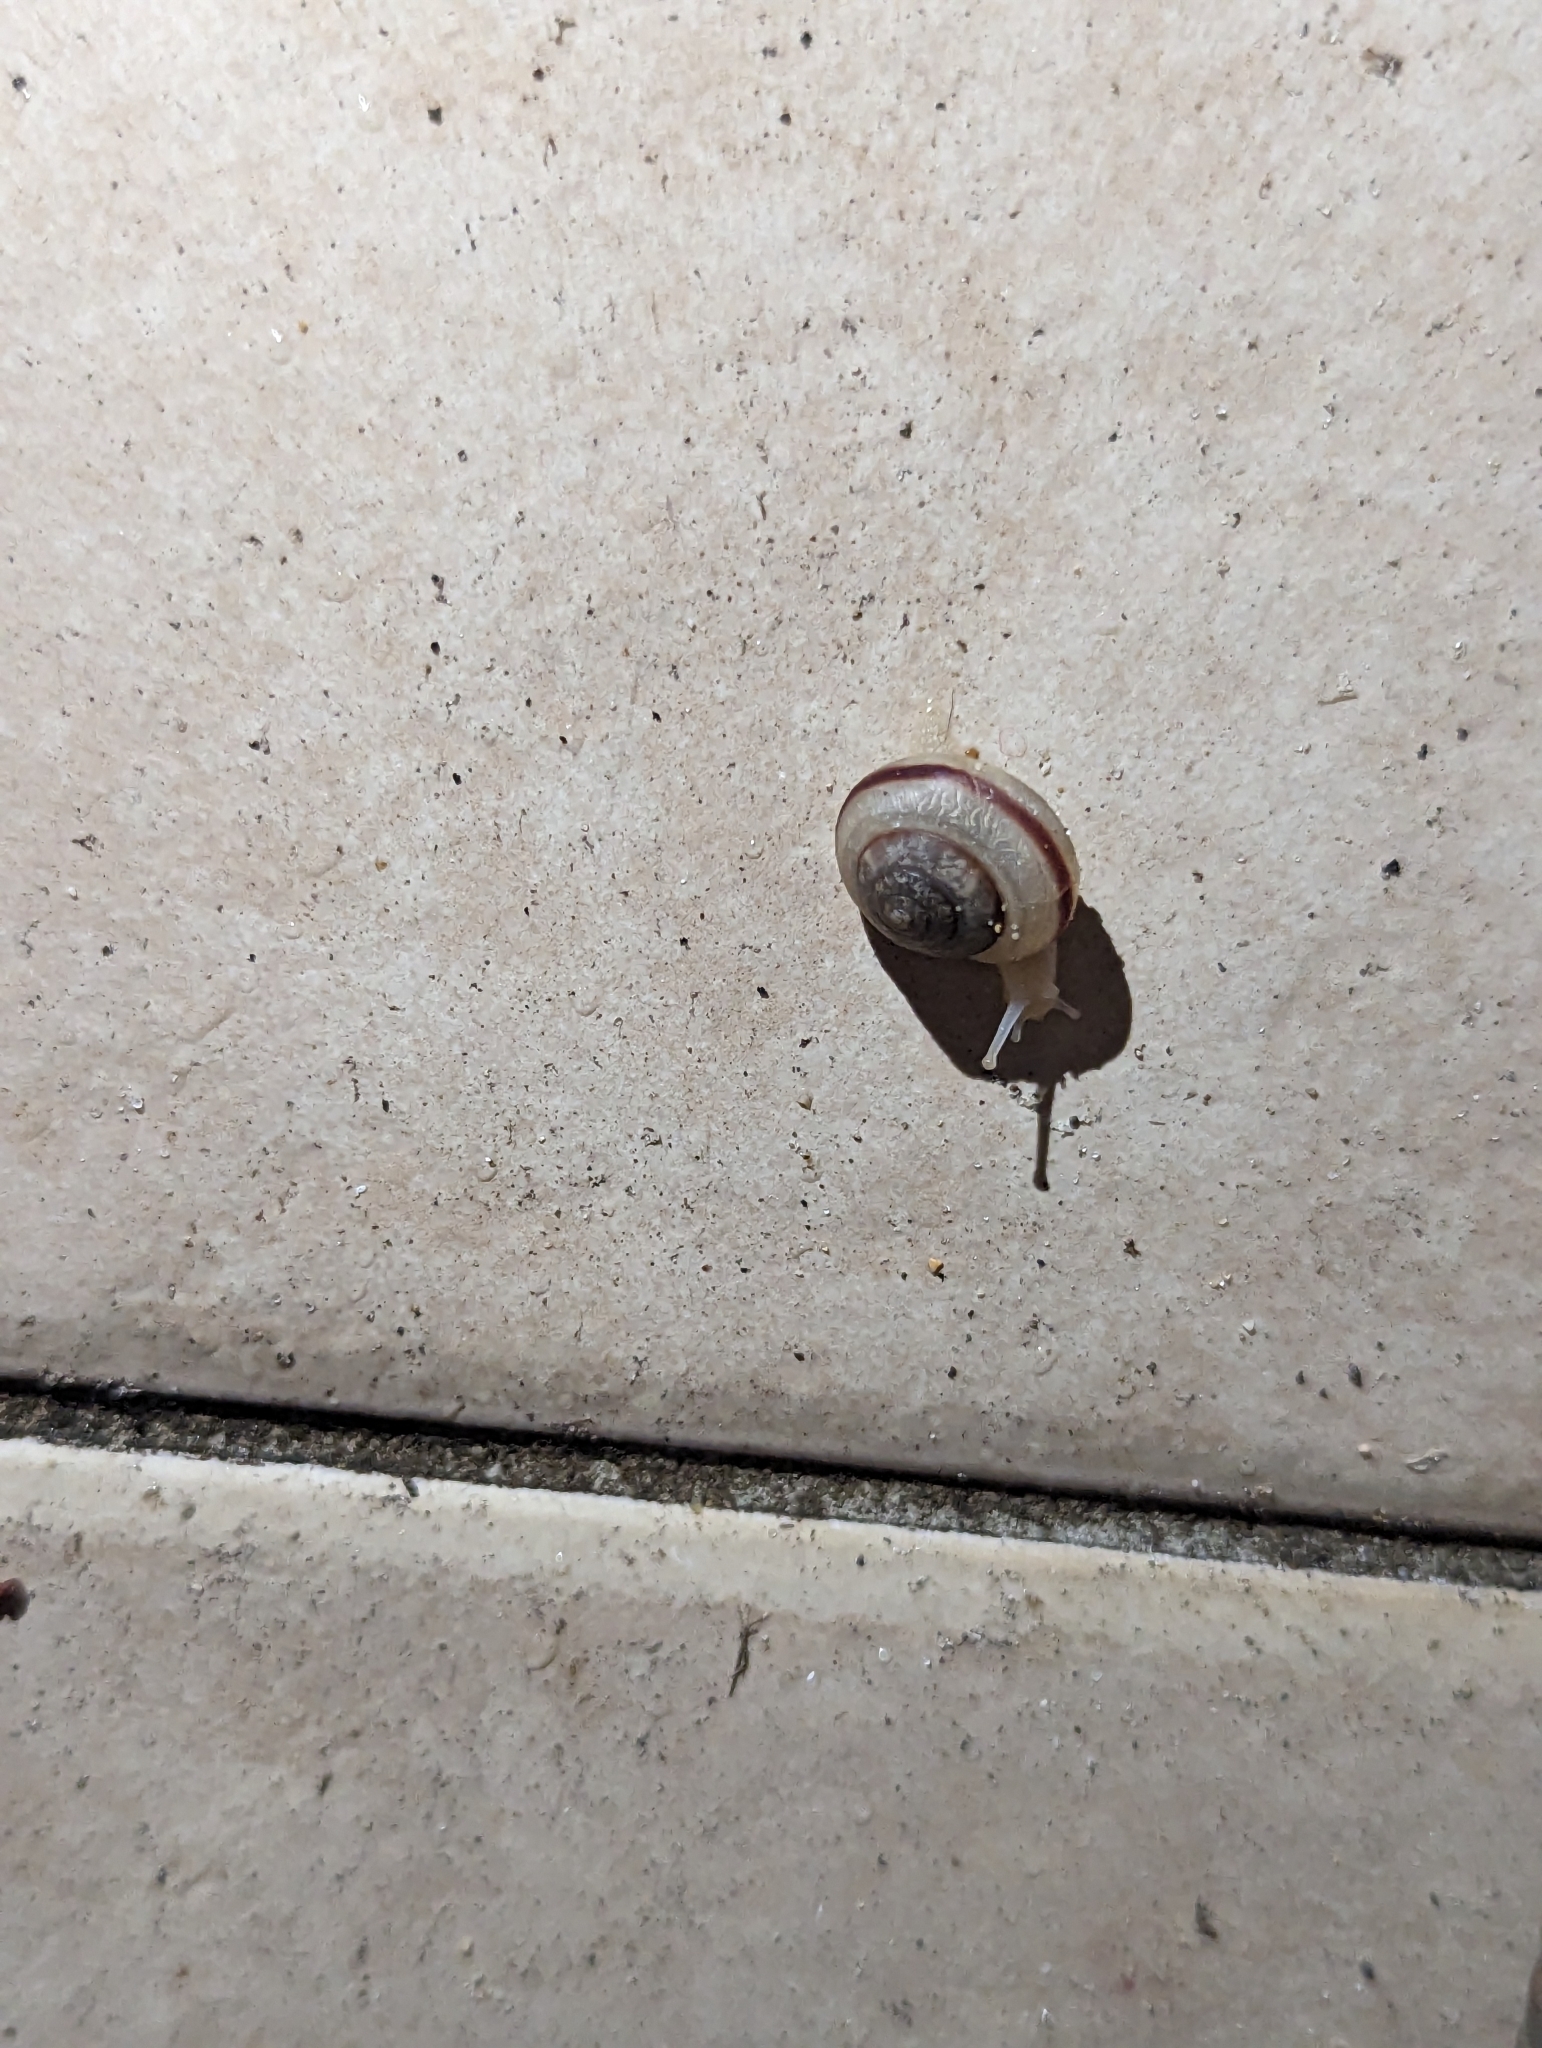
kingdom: Animalia
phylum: Mollusca
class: Gastropoda
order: Stylommatophora
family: Camaenidae
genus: Bradybaena
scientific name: Bradybaena similaris
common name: Asian trampsnail
